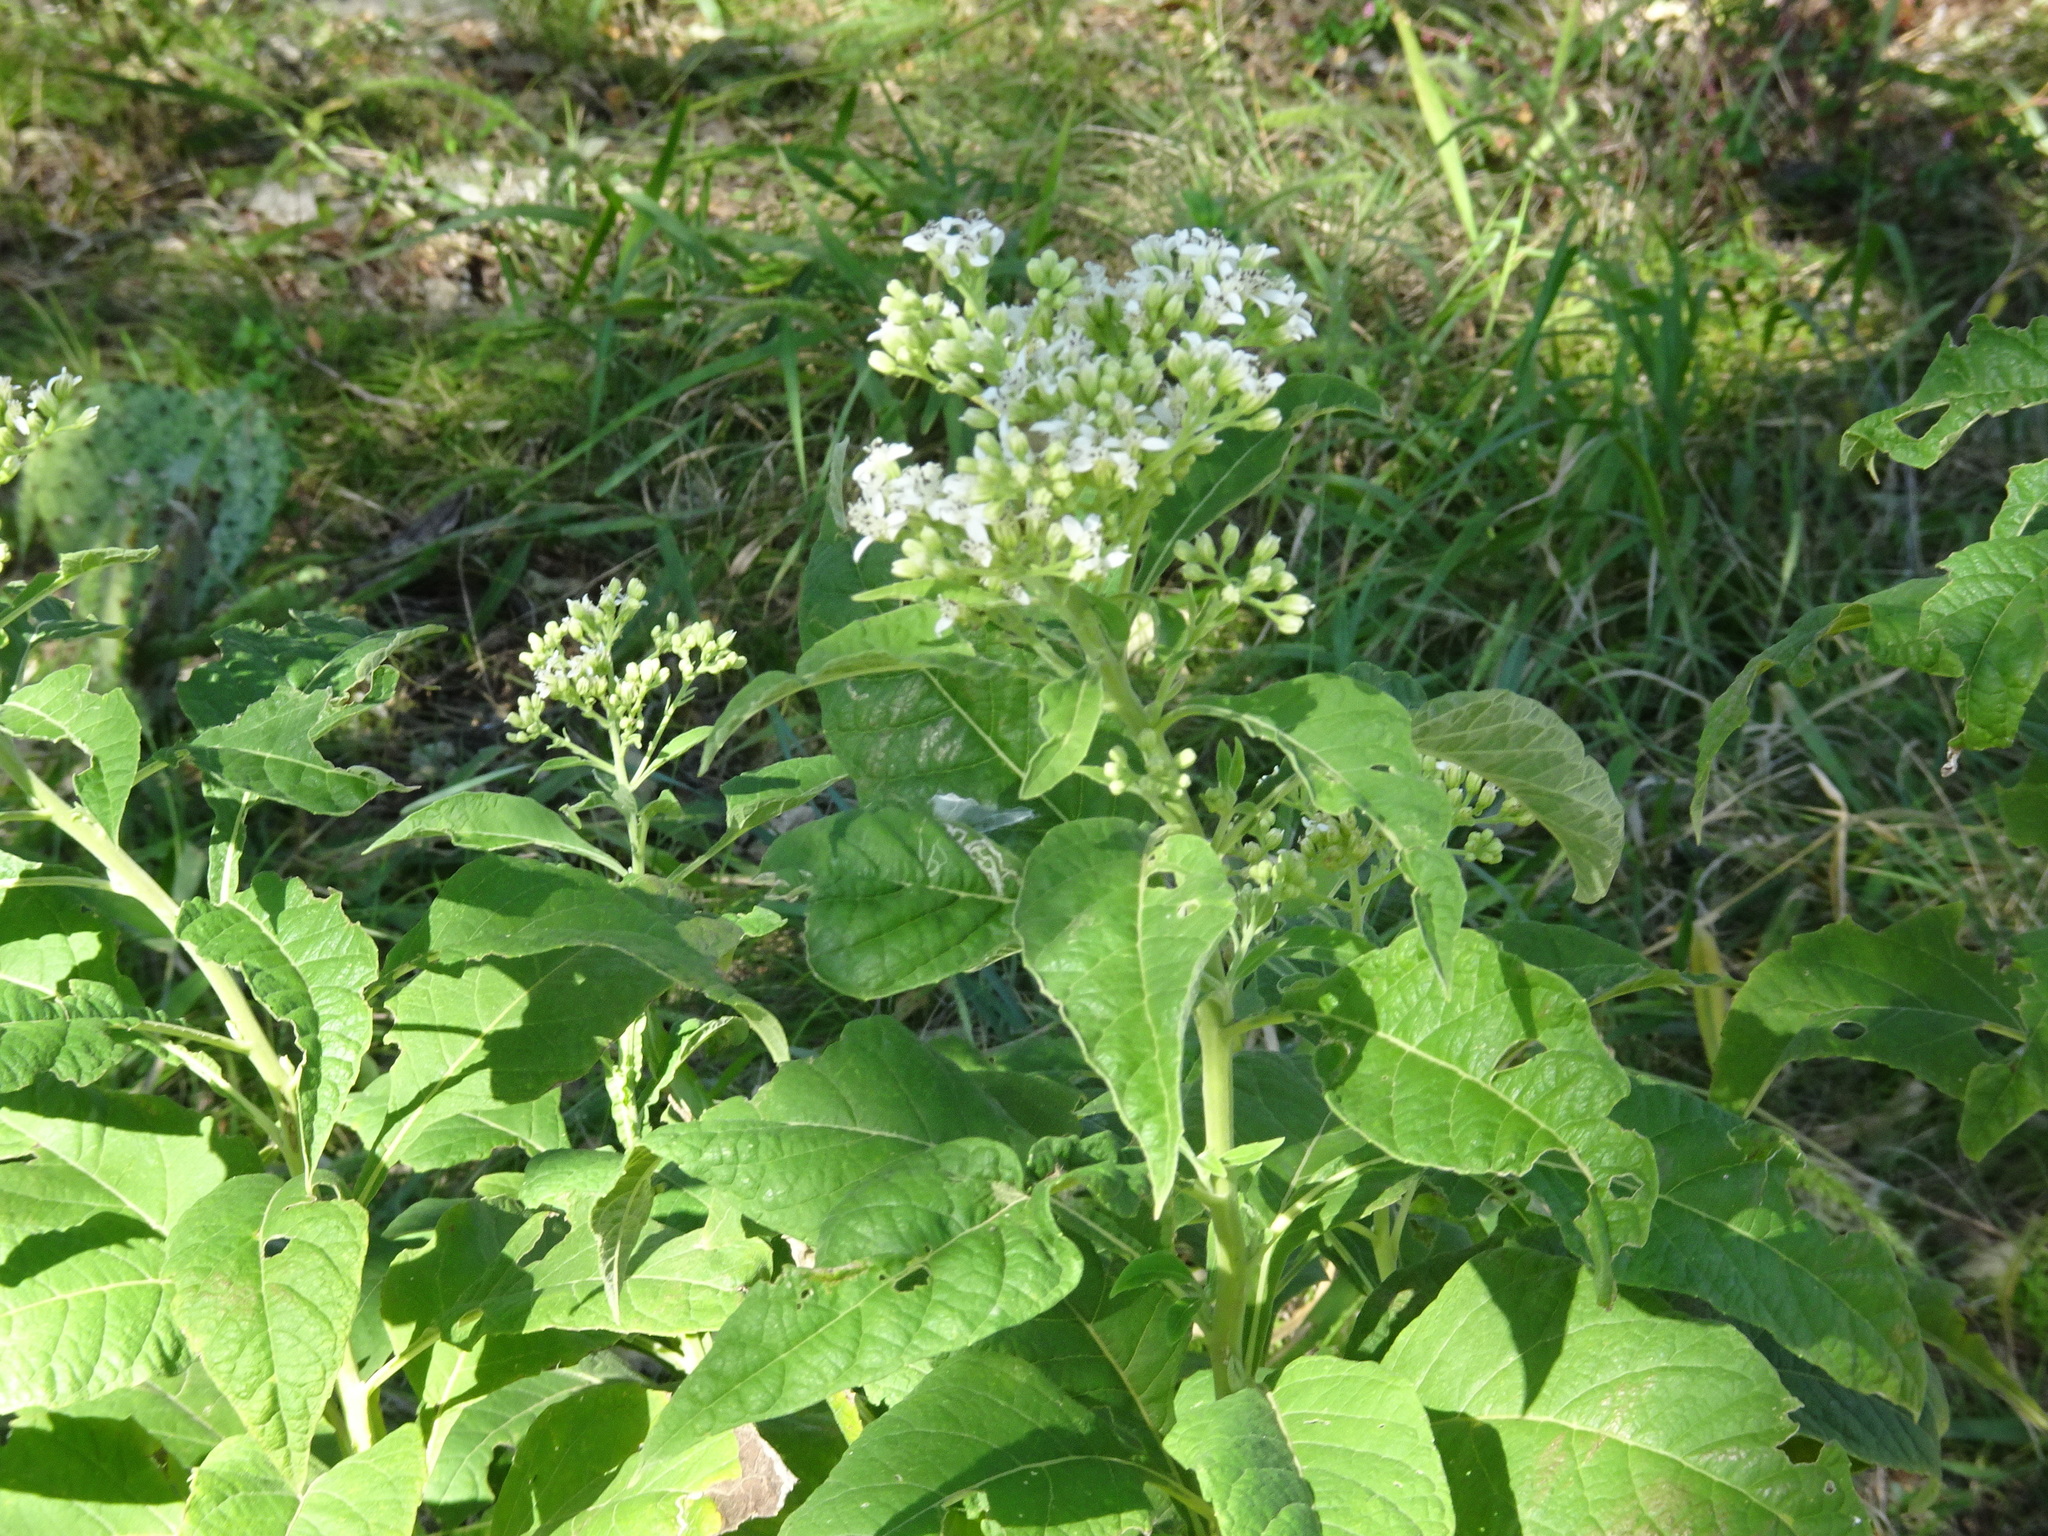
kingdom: Plantae
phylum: Tracheophyta
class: Magnoliopsida
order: Asterales
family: Asteraceae
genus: Verbesina
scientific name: Verbesina virginica
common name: Frostweed
